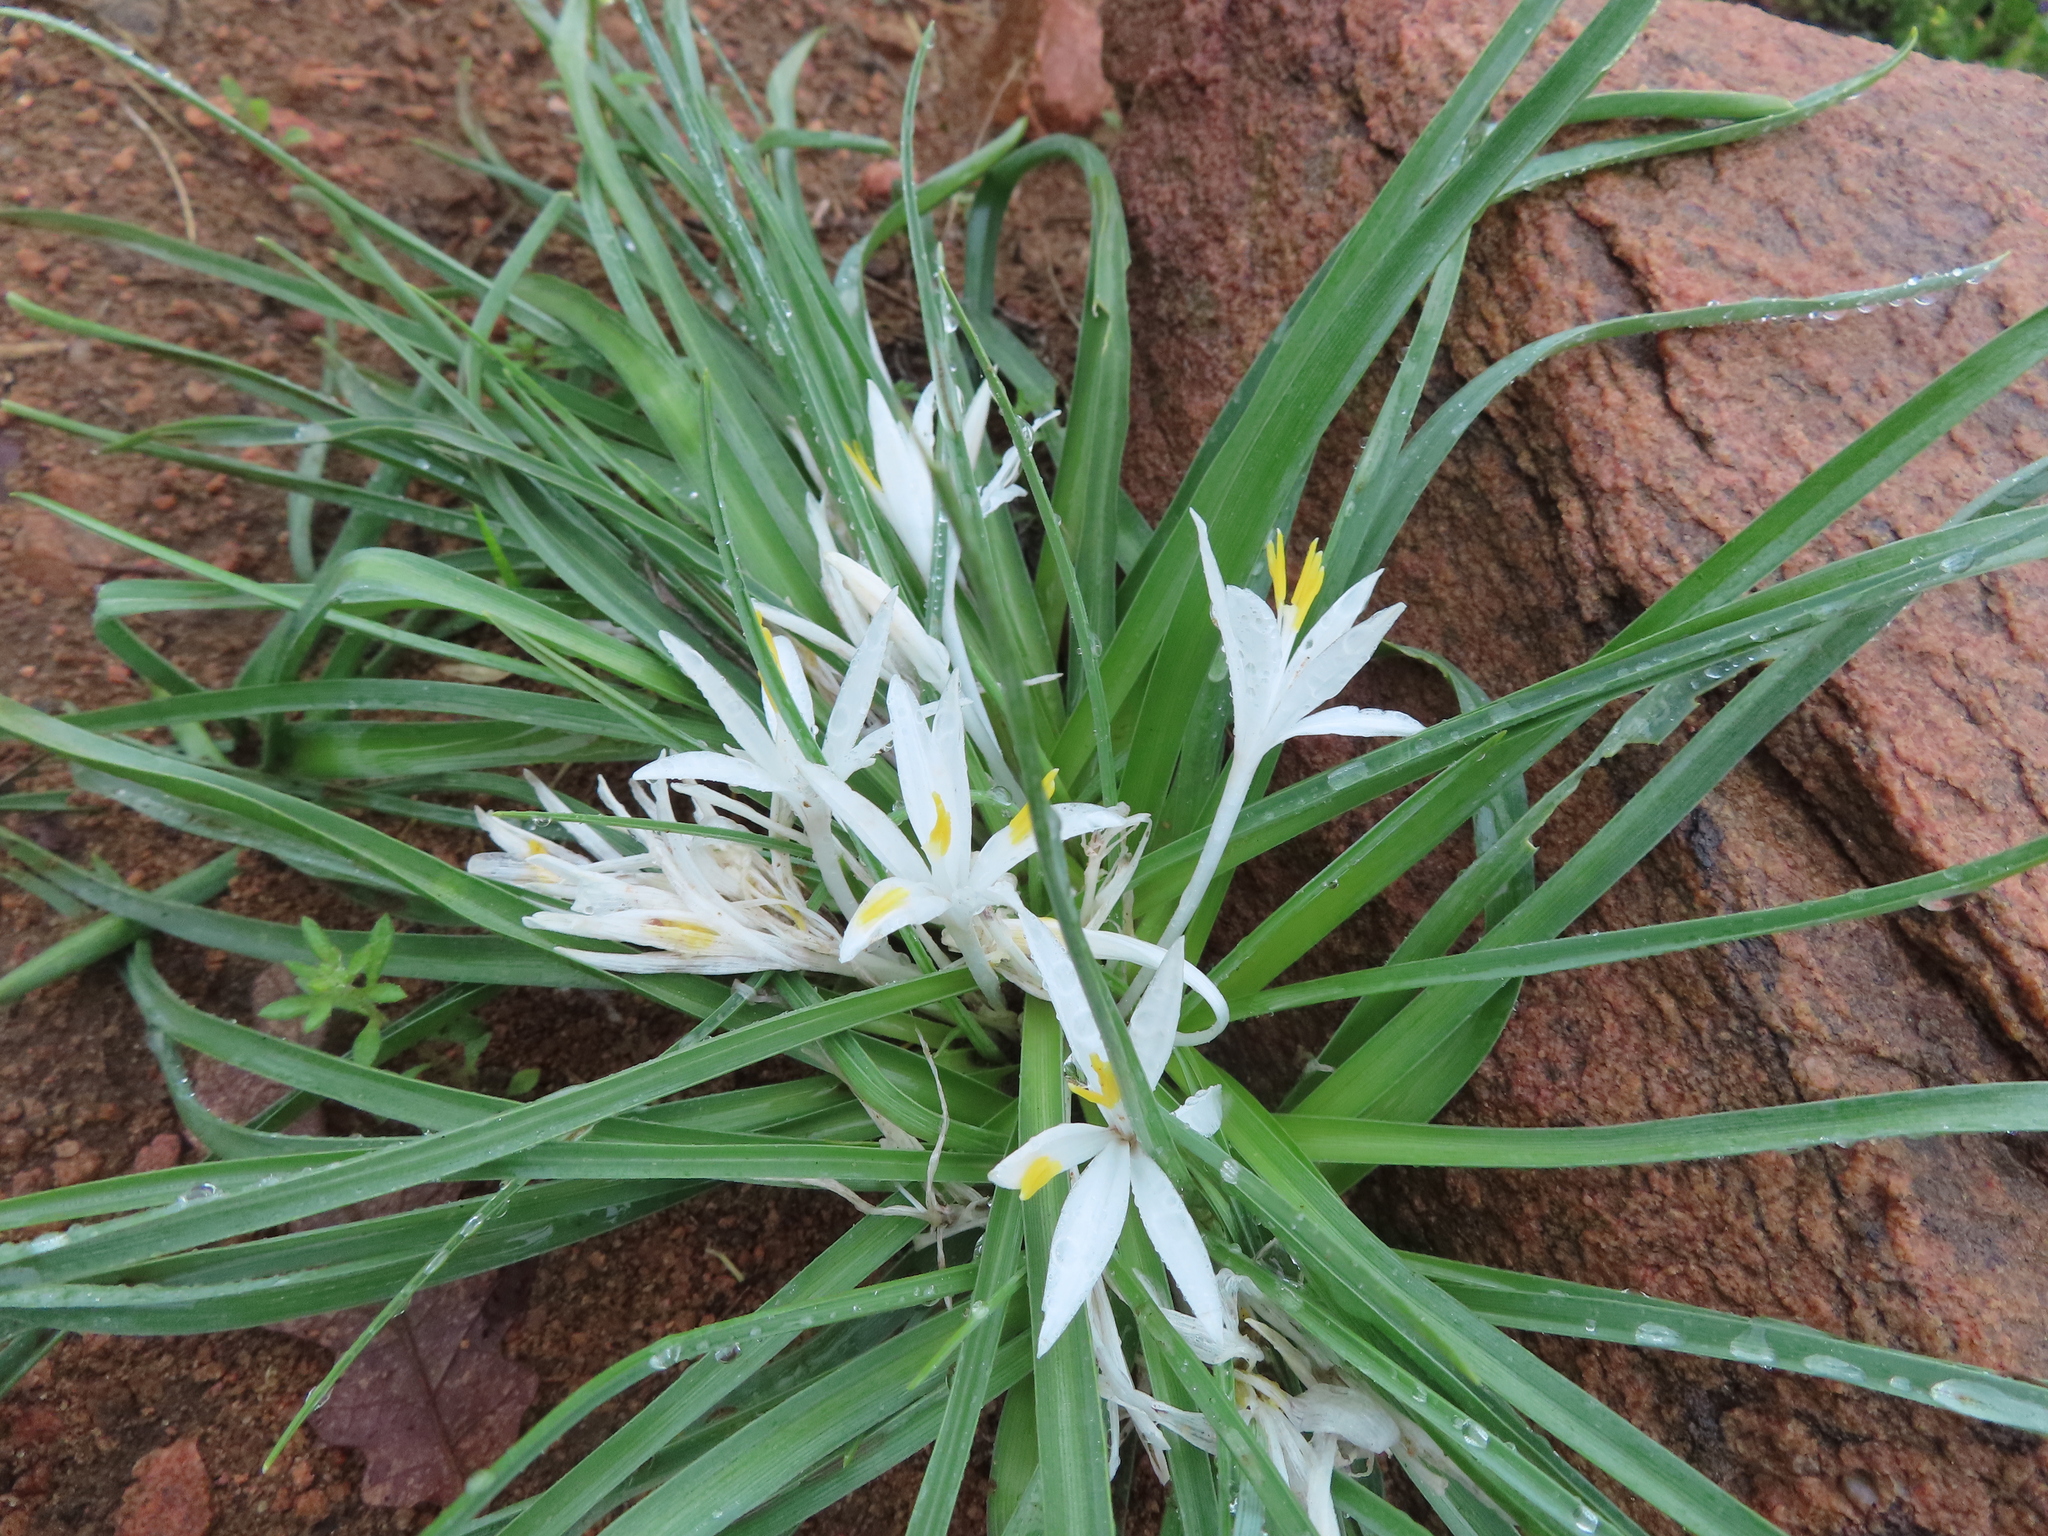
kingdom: Plantae
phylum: Tracheophyta
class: Liliopsida
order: Asparagales
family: Asparagaceae
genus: Leucocrinum
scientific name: Leucocrinum montanum
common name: Mountain-lily
